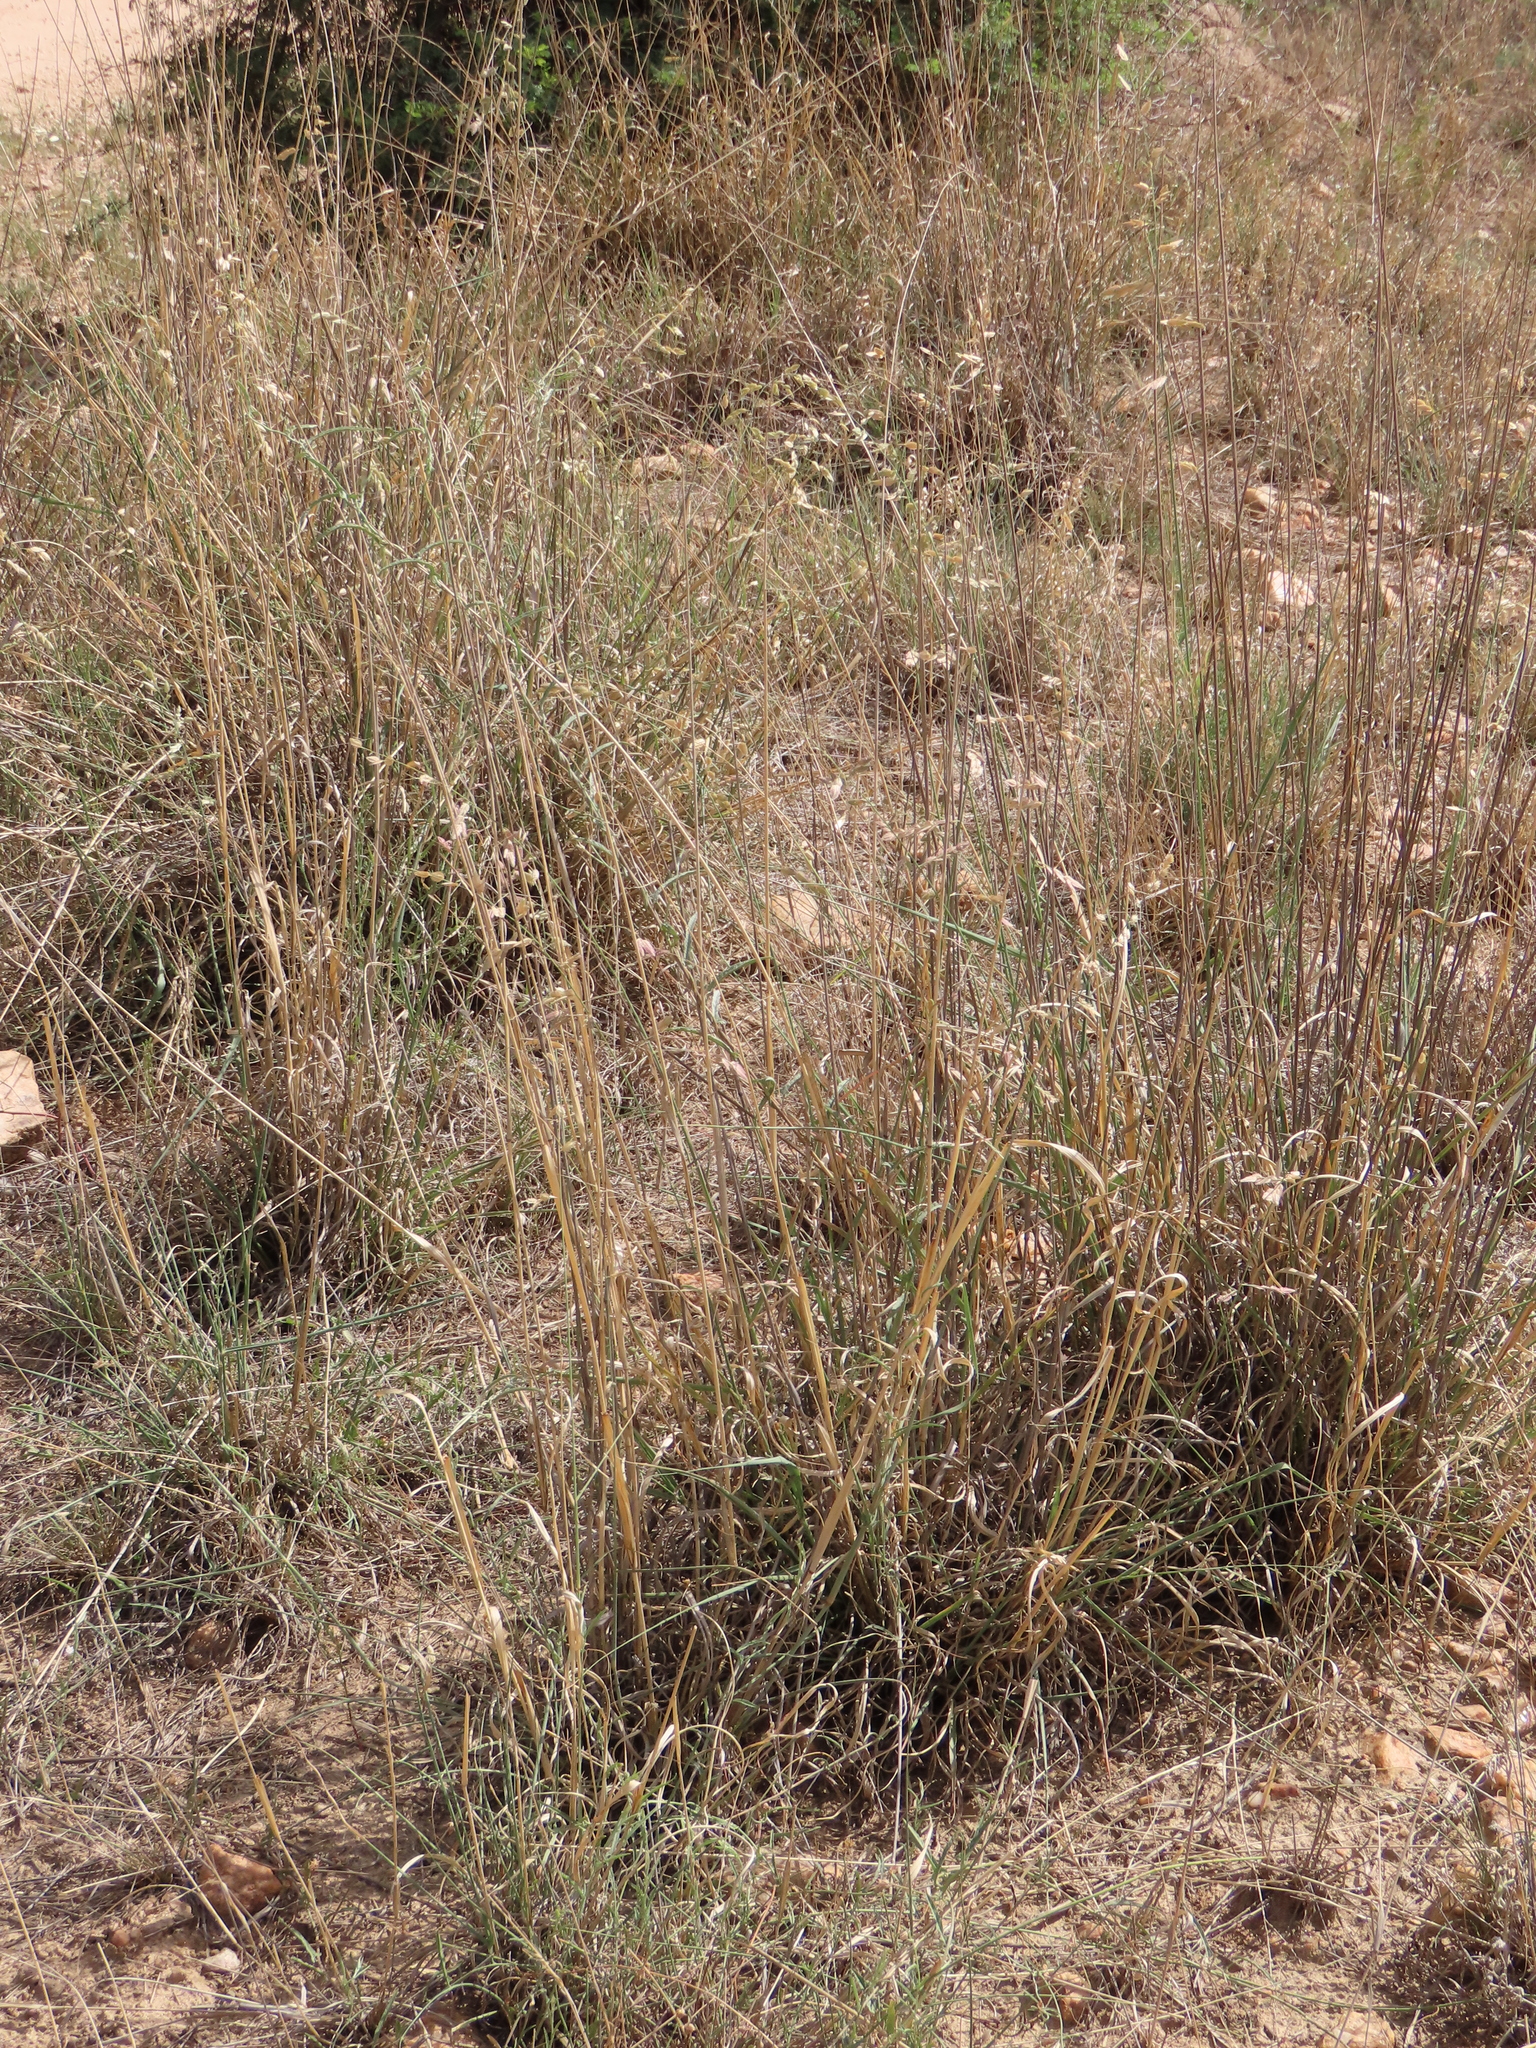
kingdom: Plantae
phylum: Tracheophyta
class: Liliopsida
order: Poales
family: Poaceae
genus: Eragrostis
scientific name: Eragrostis superba
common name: Wilman lovegrass
